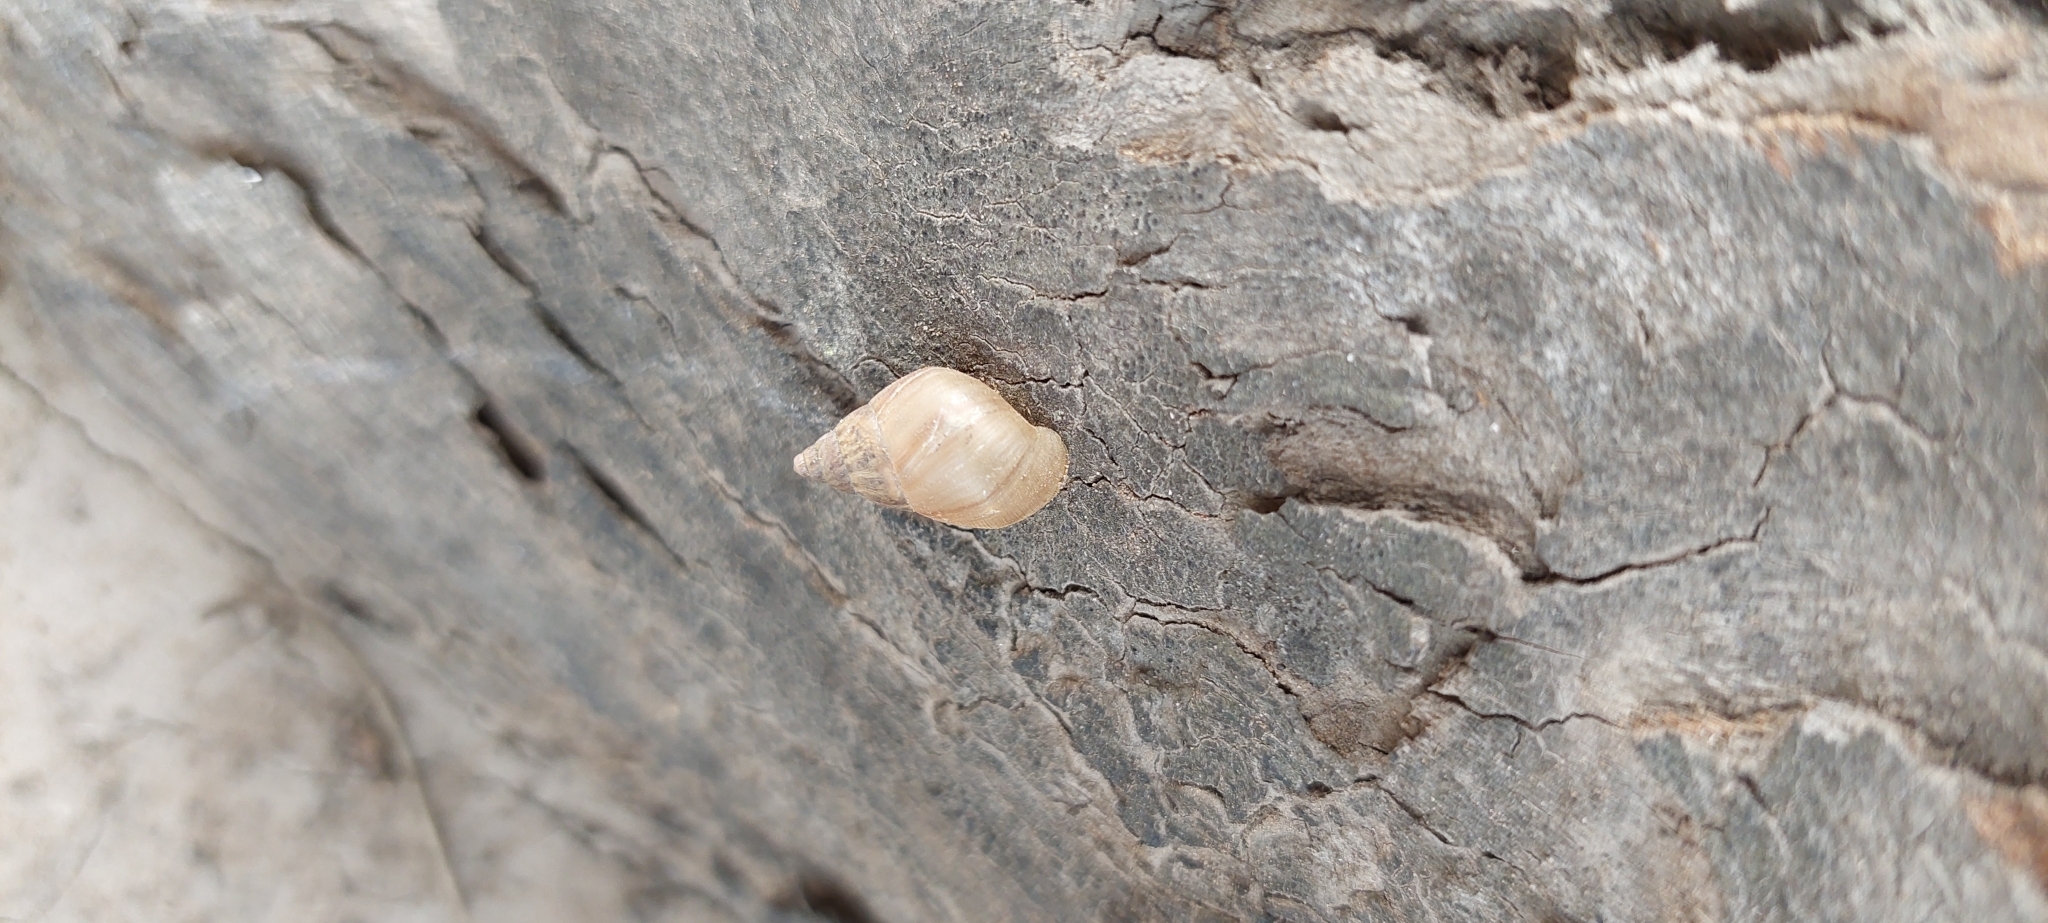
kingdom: Animalia
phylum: Mollusca
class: Gastropoda
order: Stylommatophora
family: Bulimulidae
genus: Bulimulus
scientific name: Bulimulus bonariensis
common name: Snail
